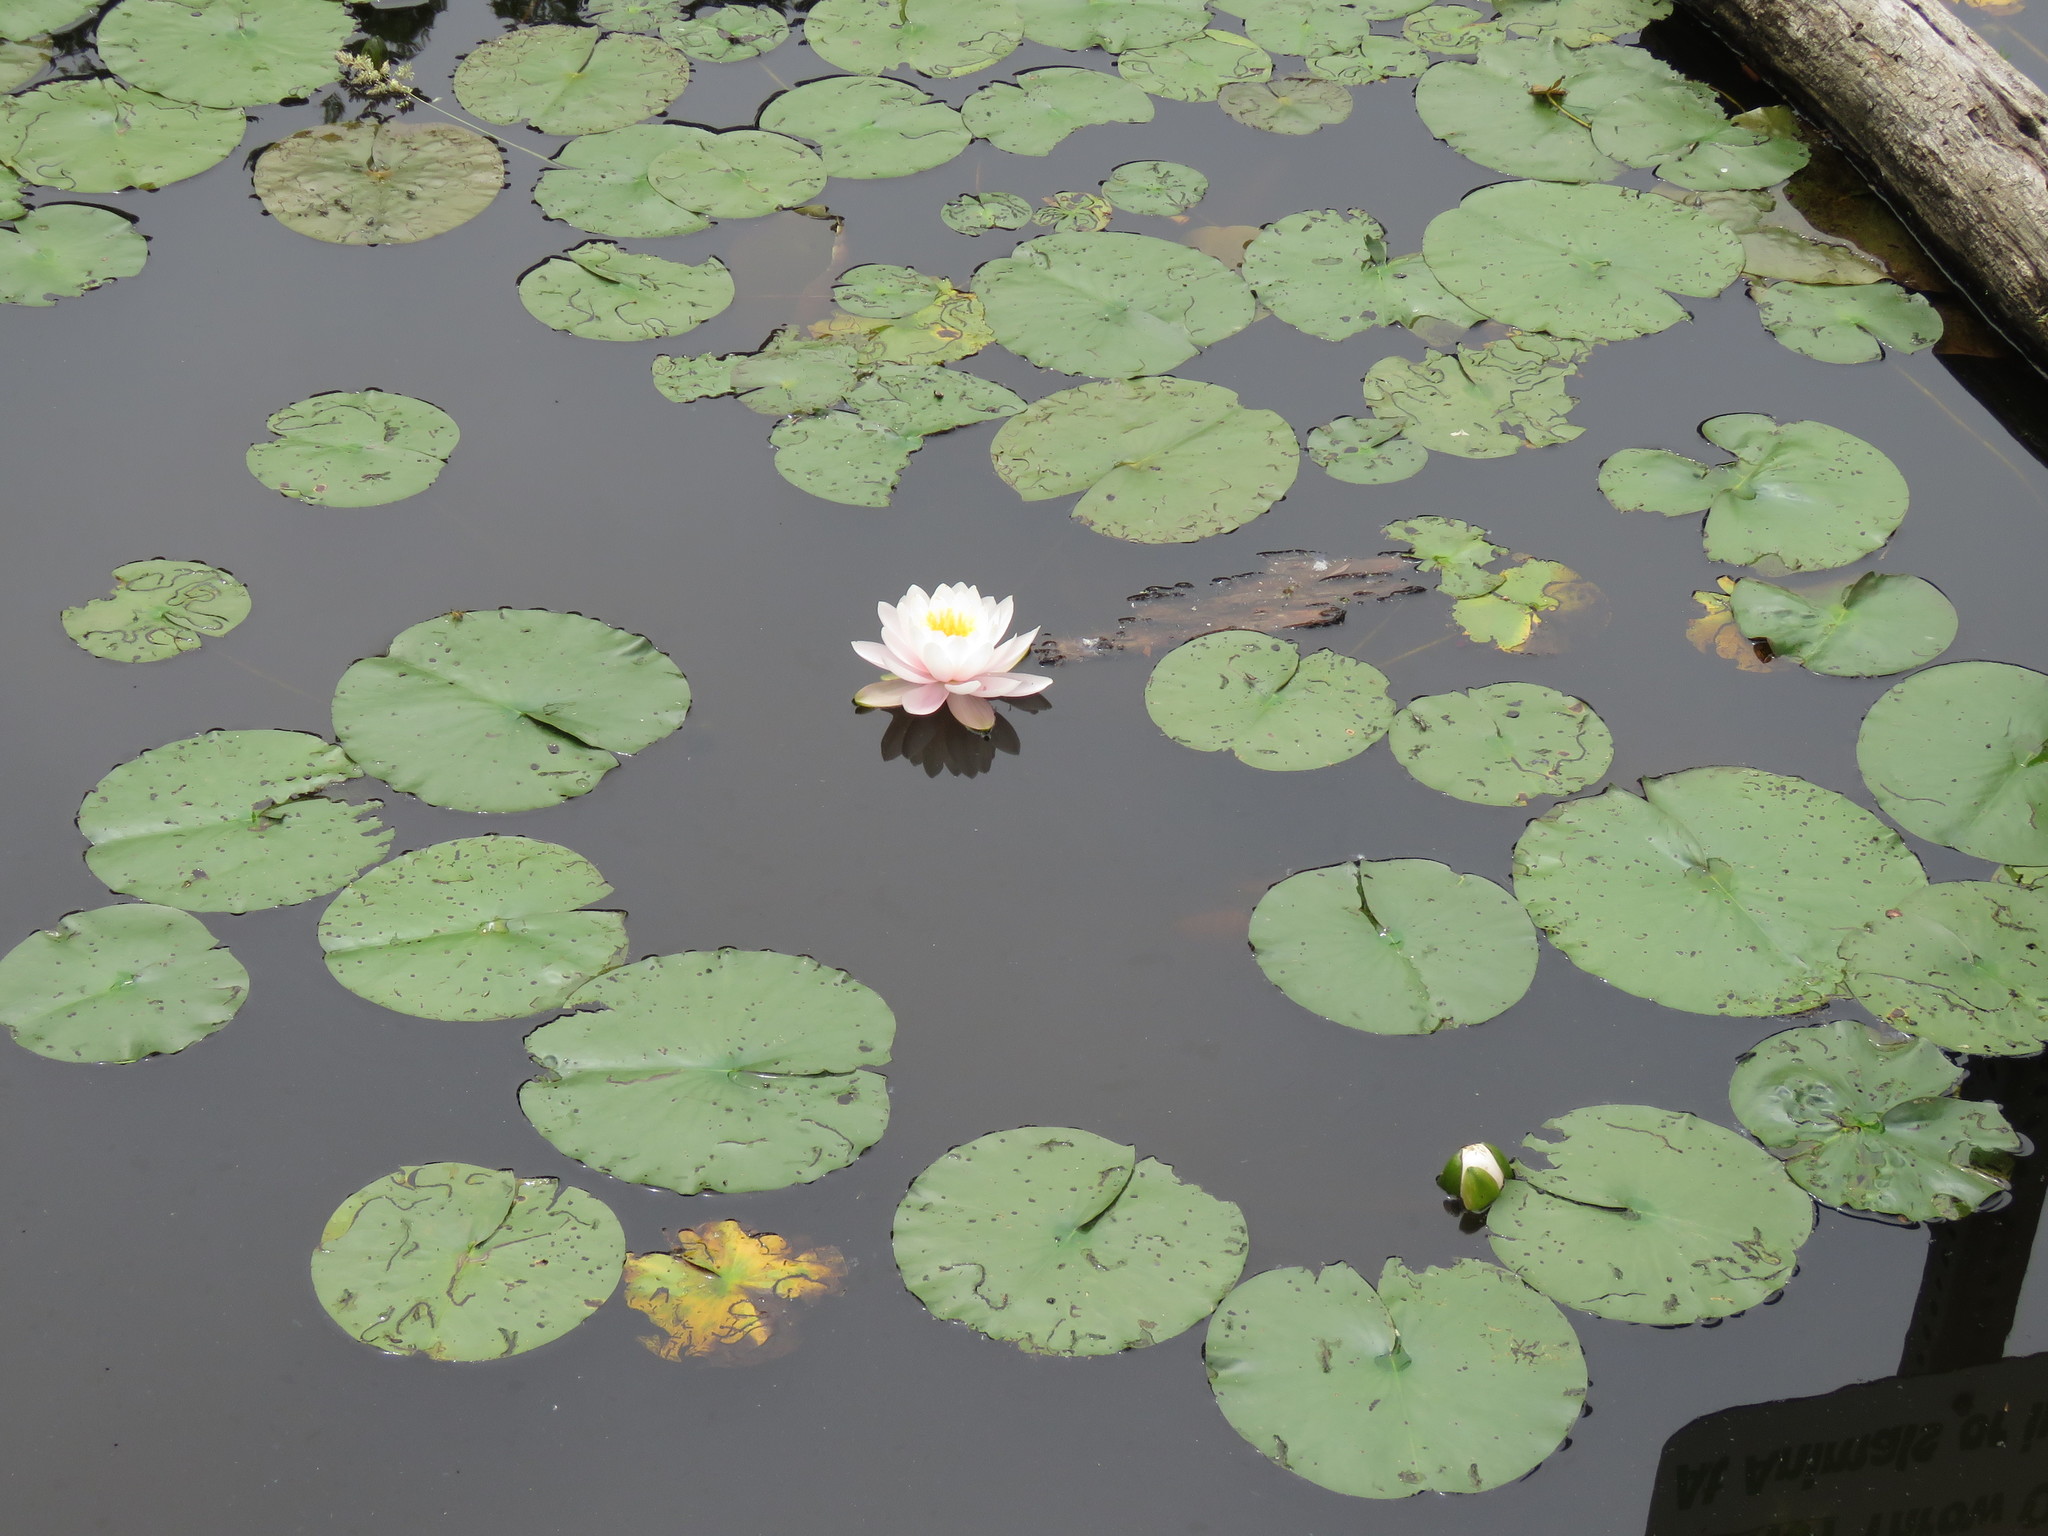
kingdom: Plantae
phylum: Tracheophyta
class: Magnoliopsida
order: Nymphaeales
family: Nymphaeaceae
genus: Nymphaea
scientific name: Nymphaea odorata
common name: Fragrant water-lily
